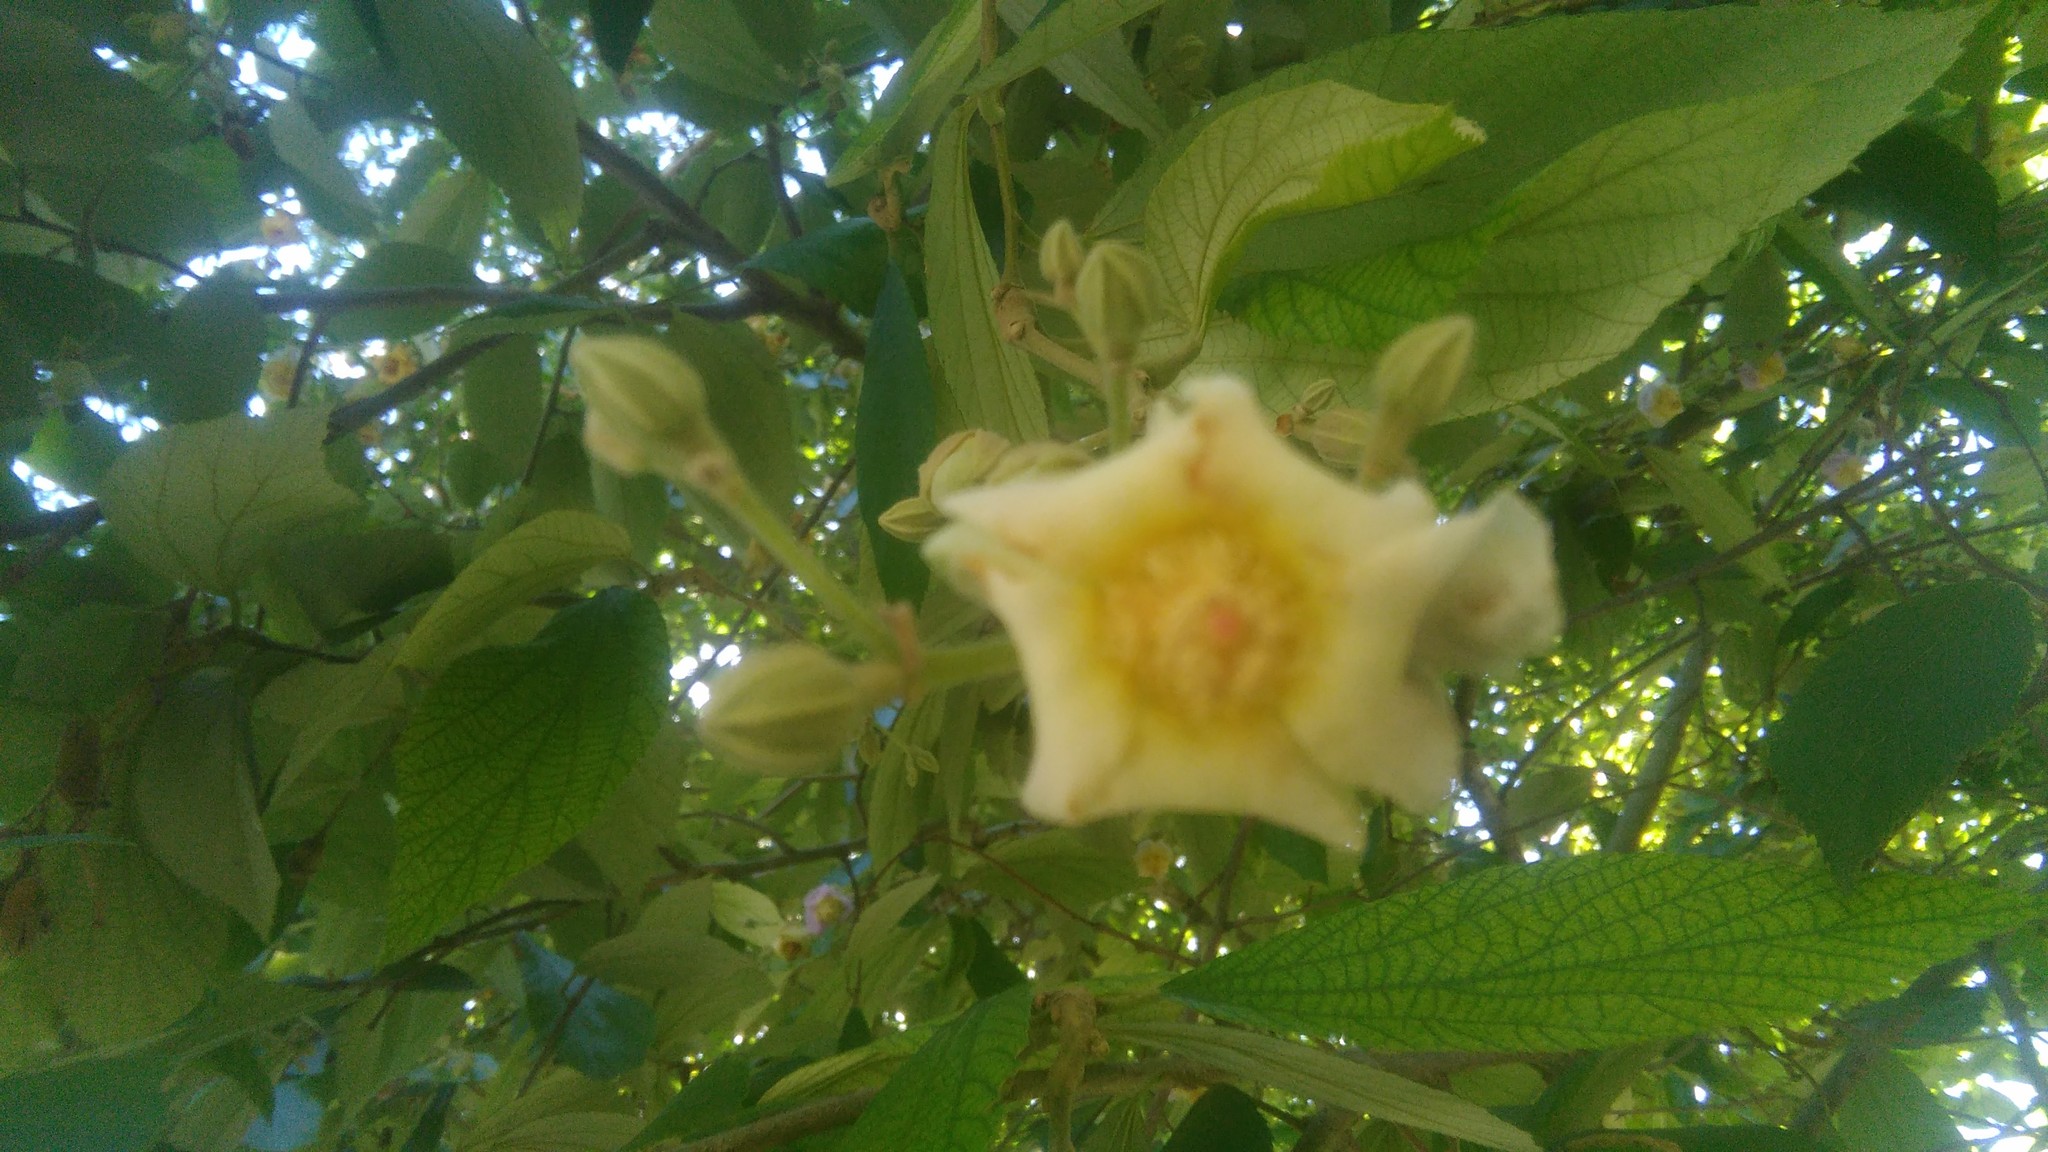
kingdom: Plantae
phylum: Tracheophyta
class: Magnoliopsida
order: Malvales
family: Malvaceae
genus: Luehea
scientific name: Luehea divaricata
